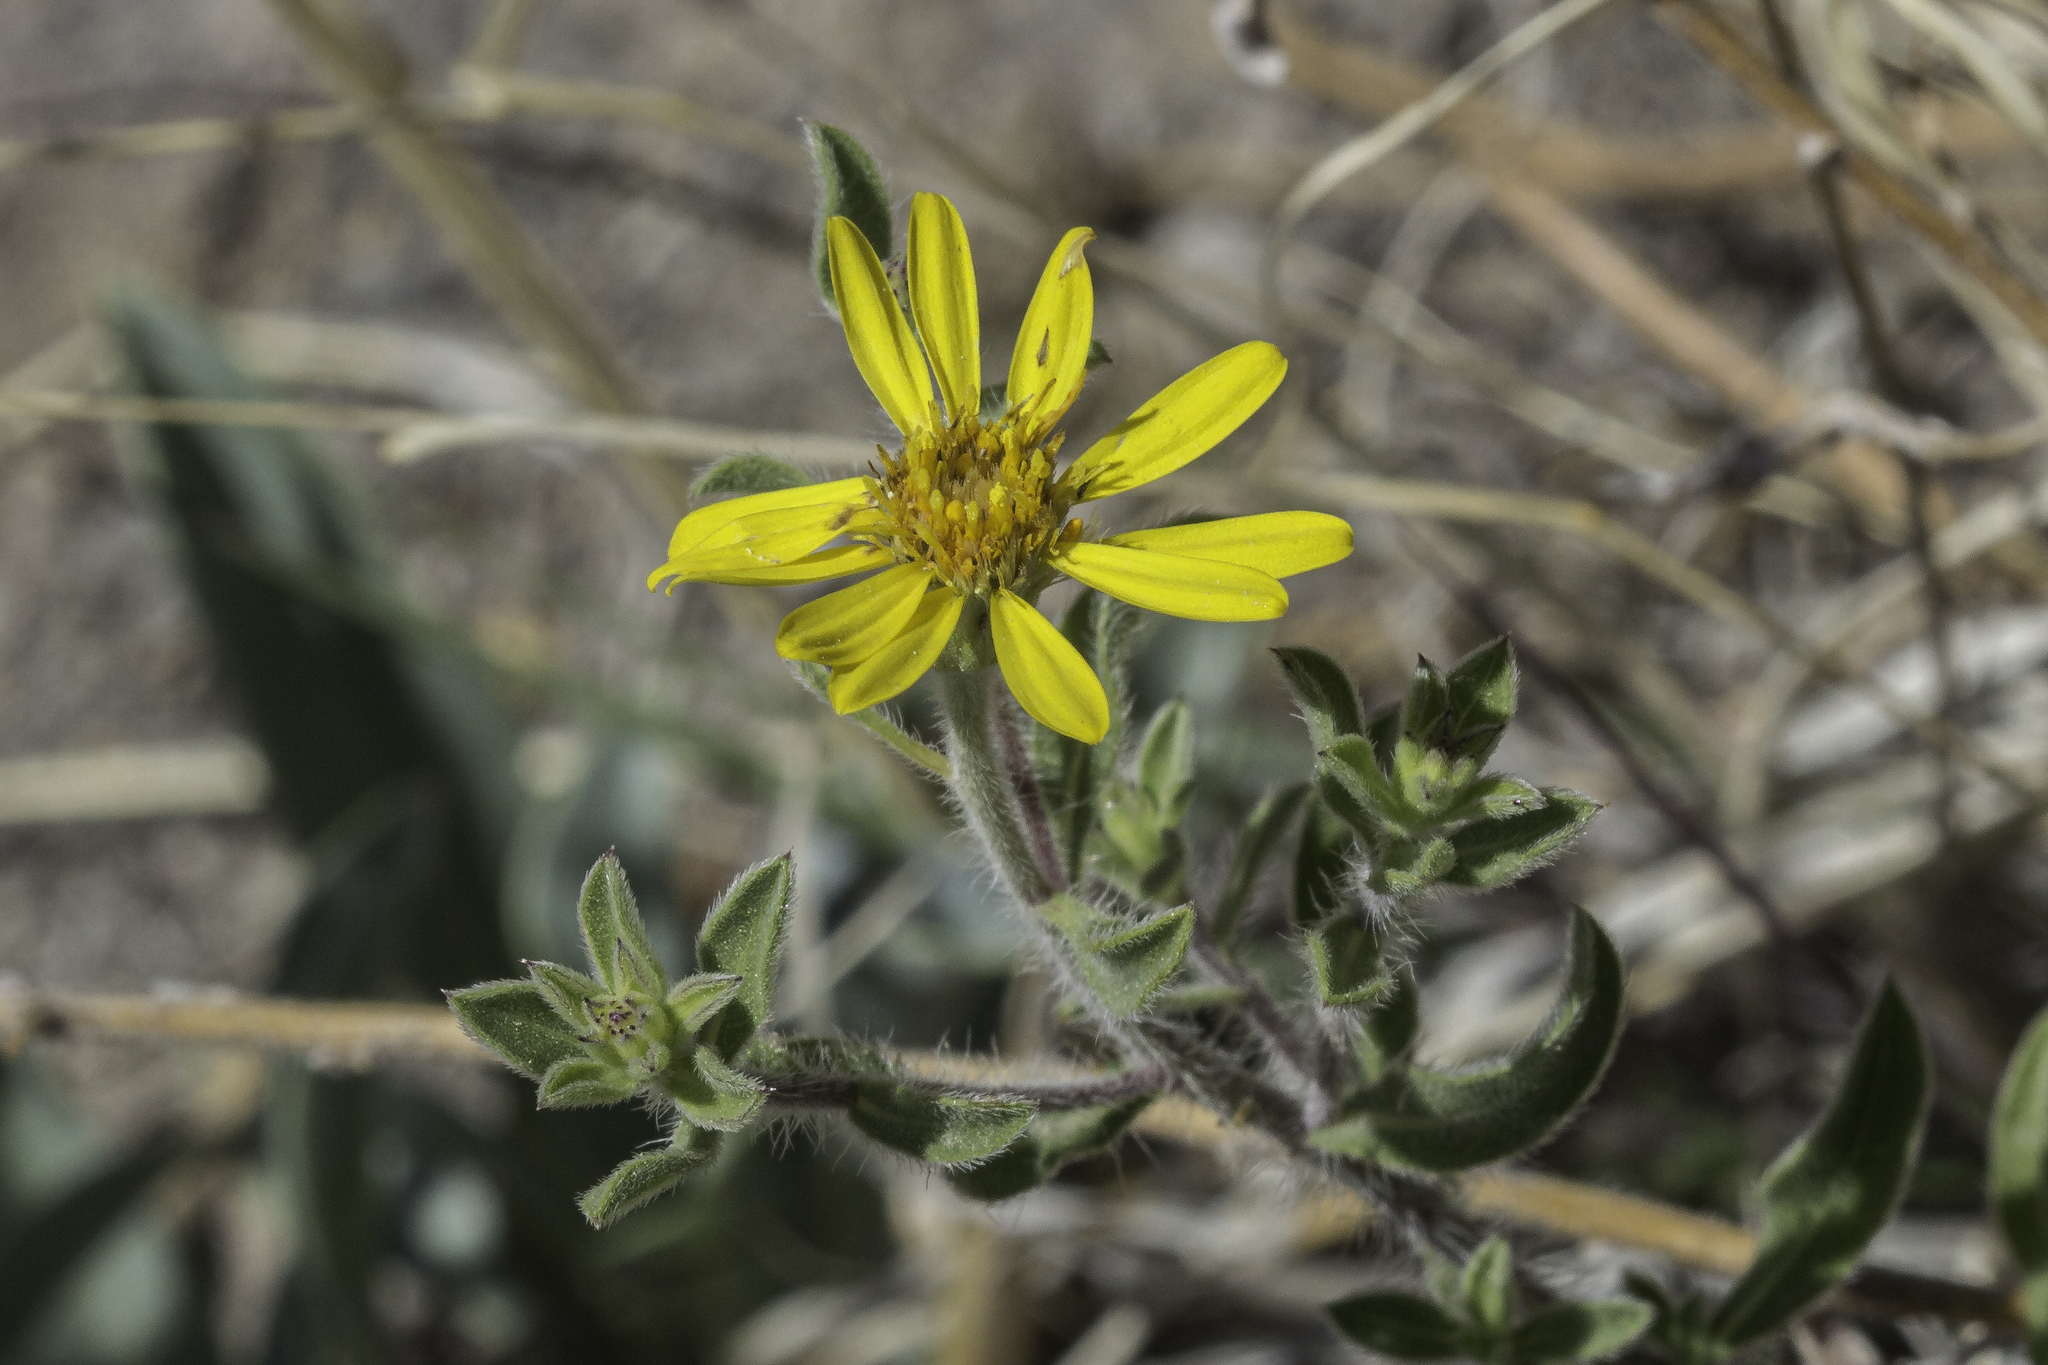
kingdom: Plantae
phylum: Tracheophyta
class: Magnoliopsida
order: Asterales
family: Asteraceae
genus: Heterotheca
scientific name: Heterotheca hirsutissima
